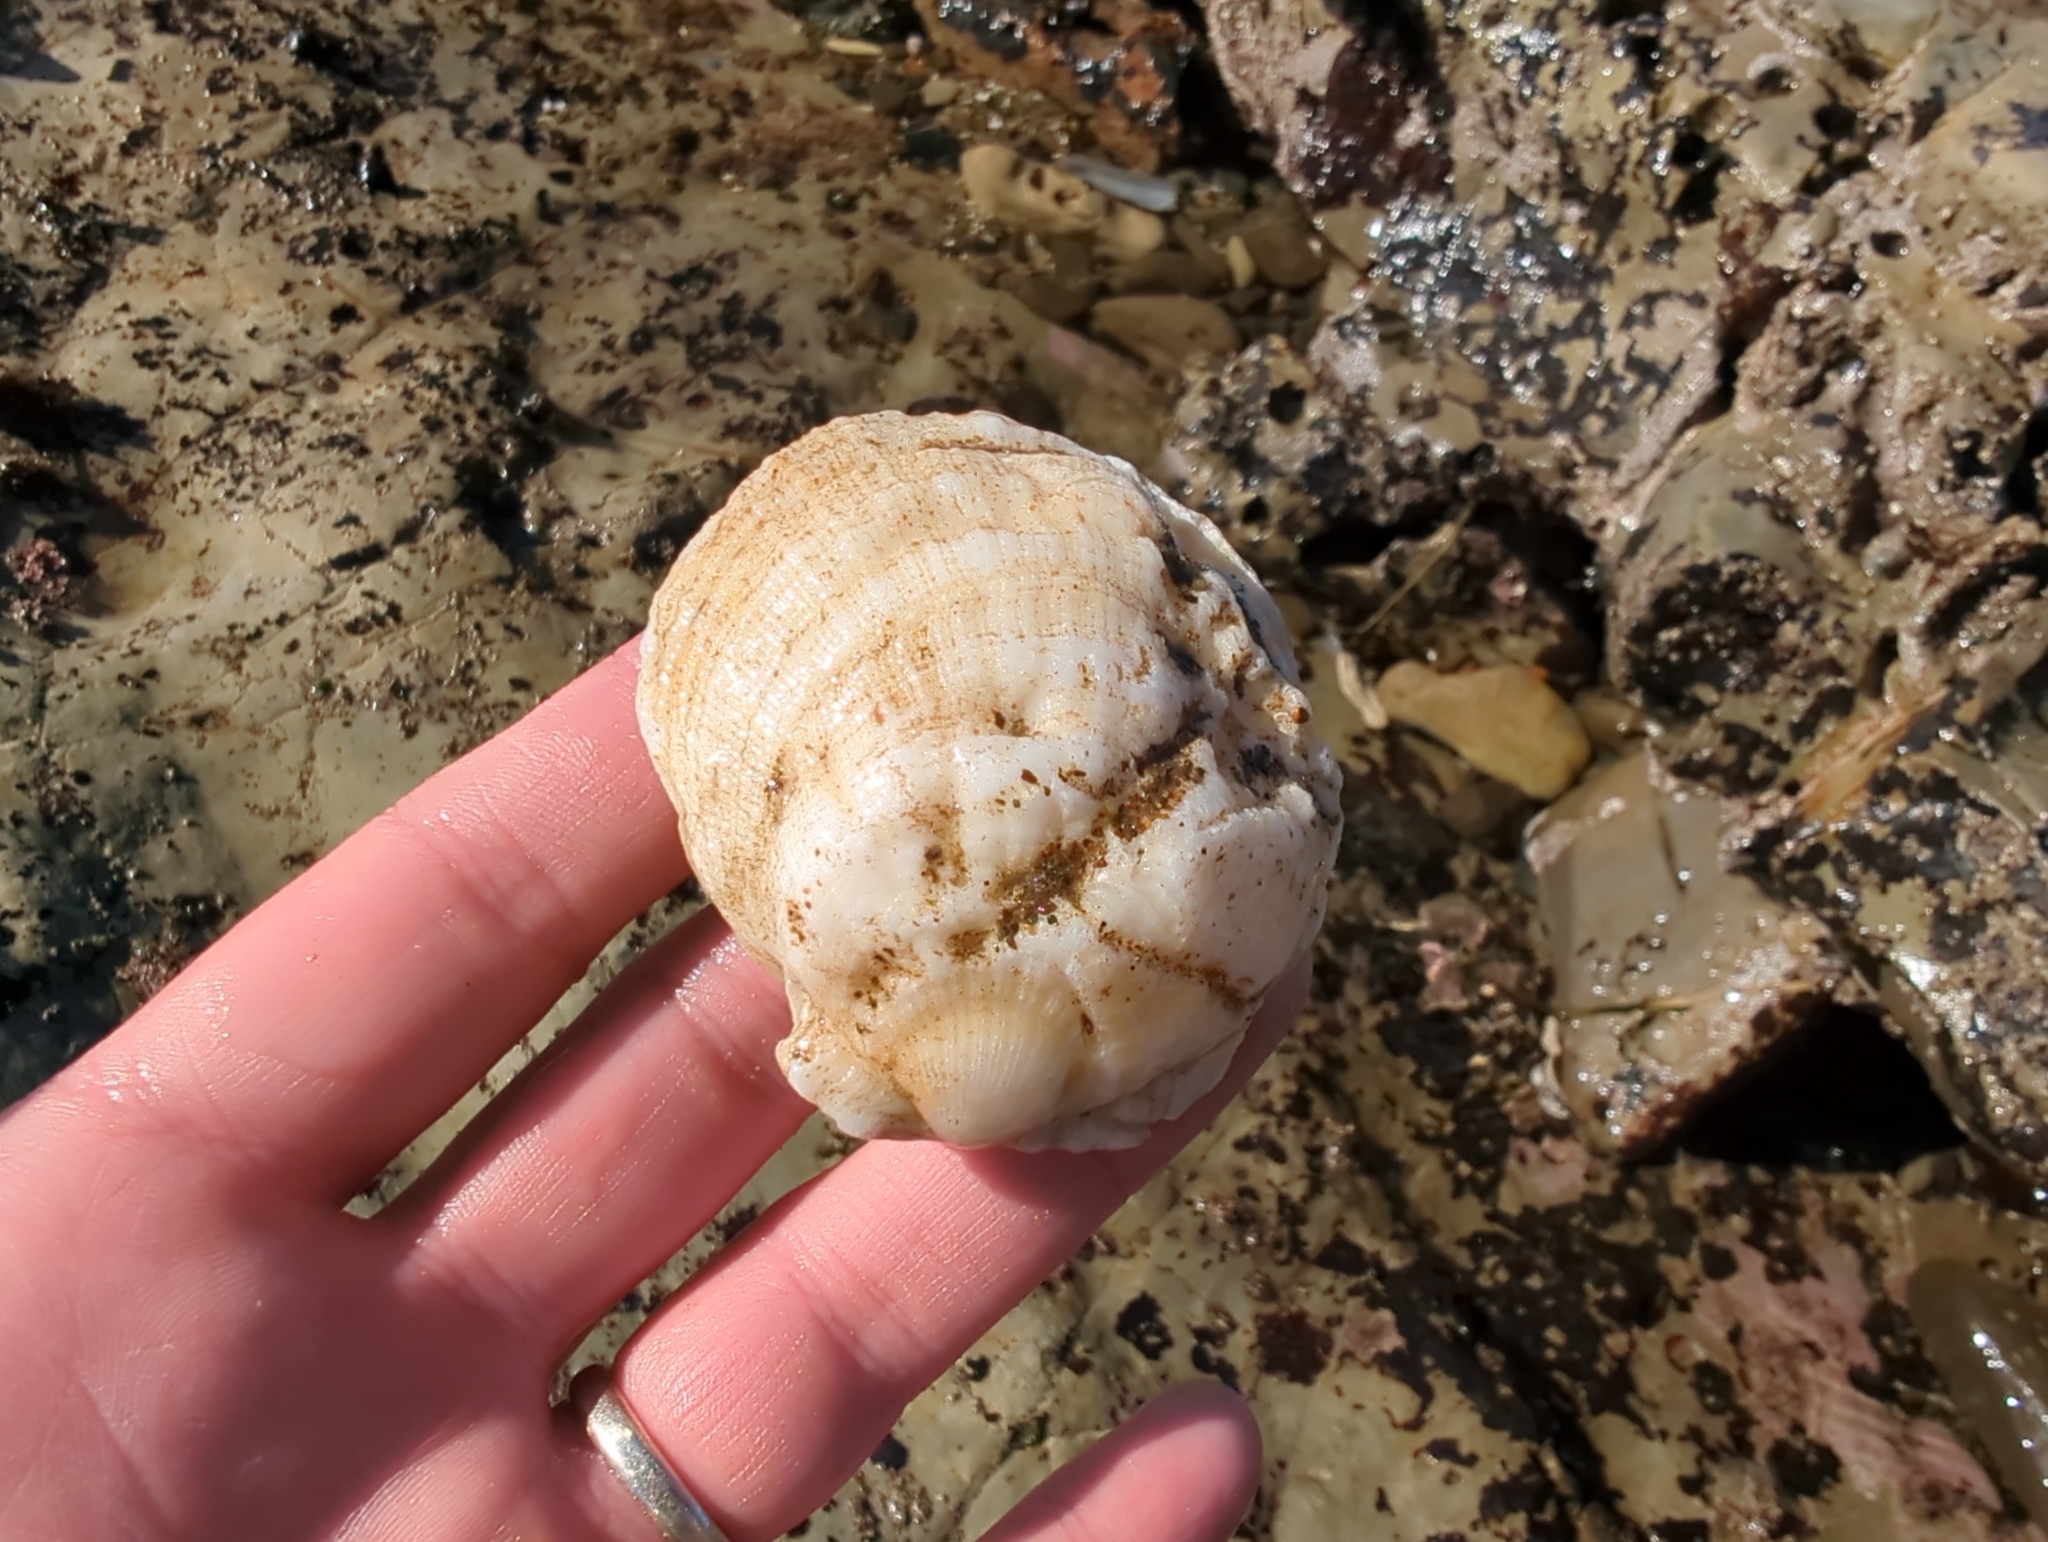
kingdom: Animalia
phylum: Mollusca
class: Bivalvia
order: Pectinida
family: Pectinidae
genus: Crassadoma
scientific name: Crassadoma gigantea
